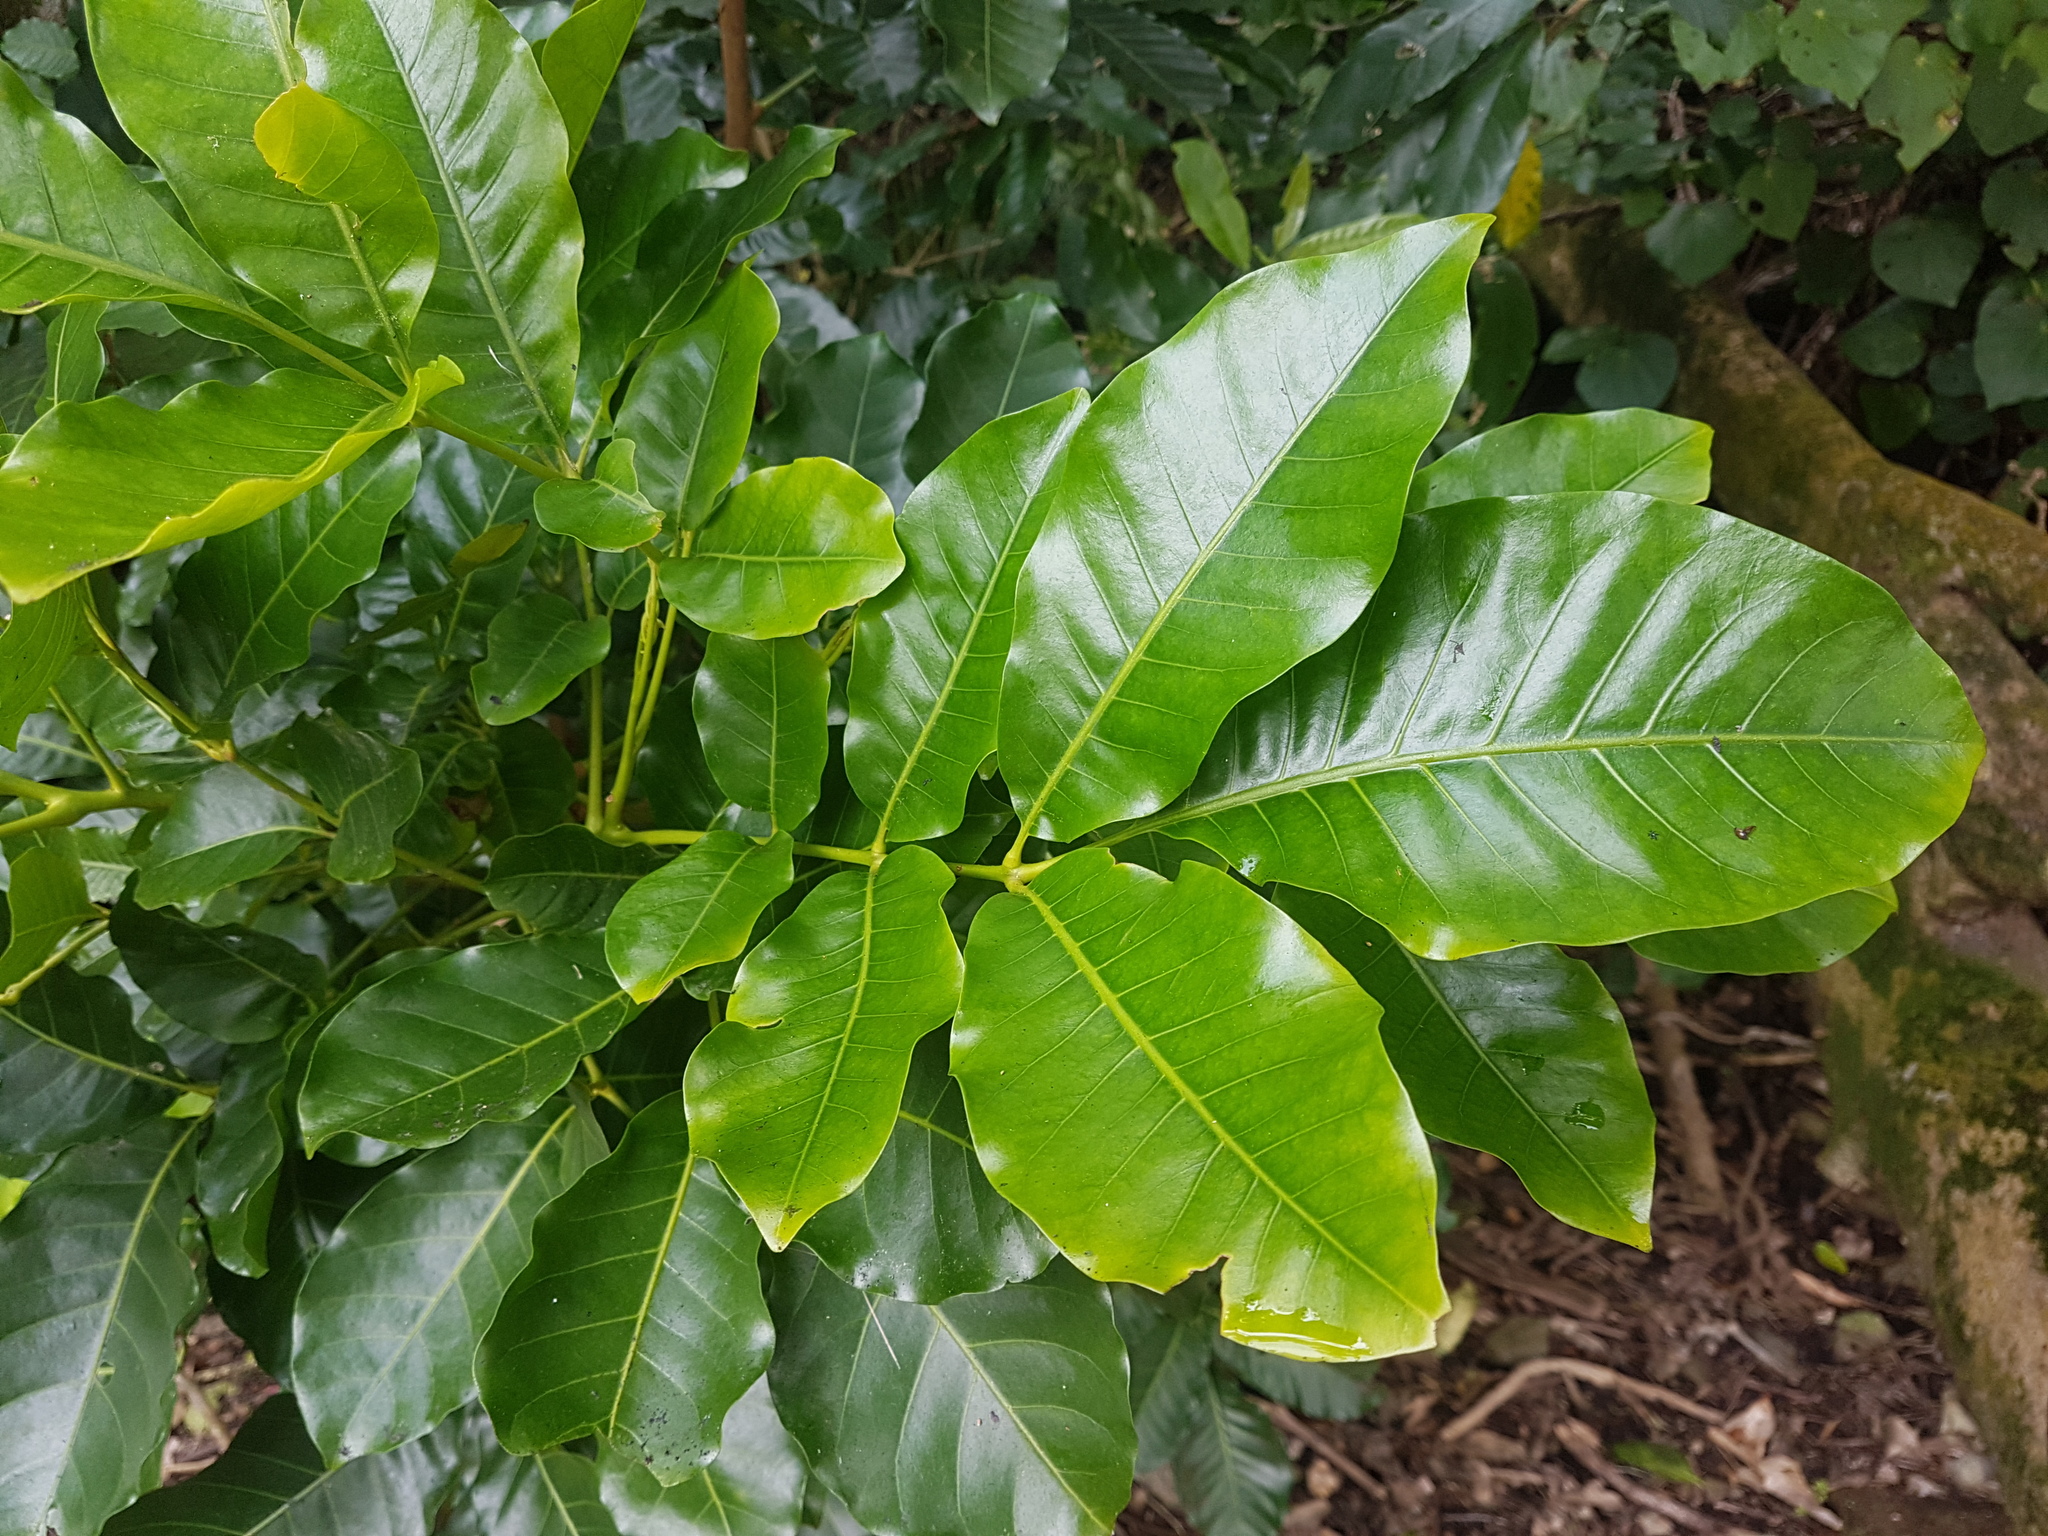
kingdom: Plantae
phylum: Tracheophyta
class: Magnoliopsida
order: Sapindales
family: Meliaceae
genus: Didymocheton
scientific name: Didymocheton spectabilis
